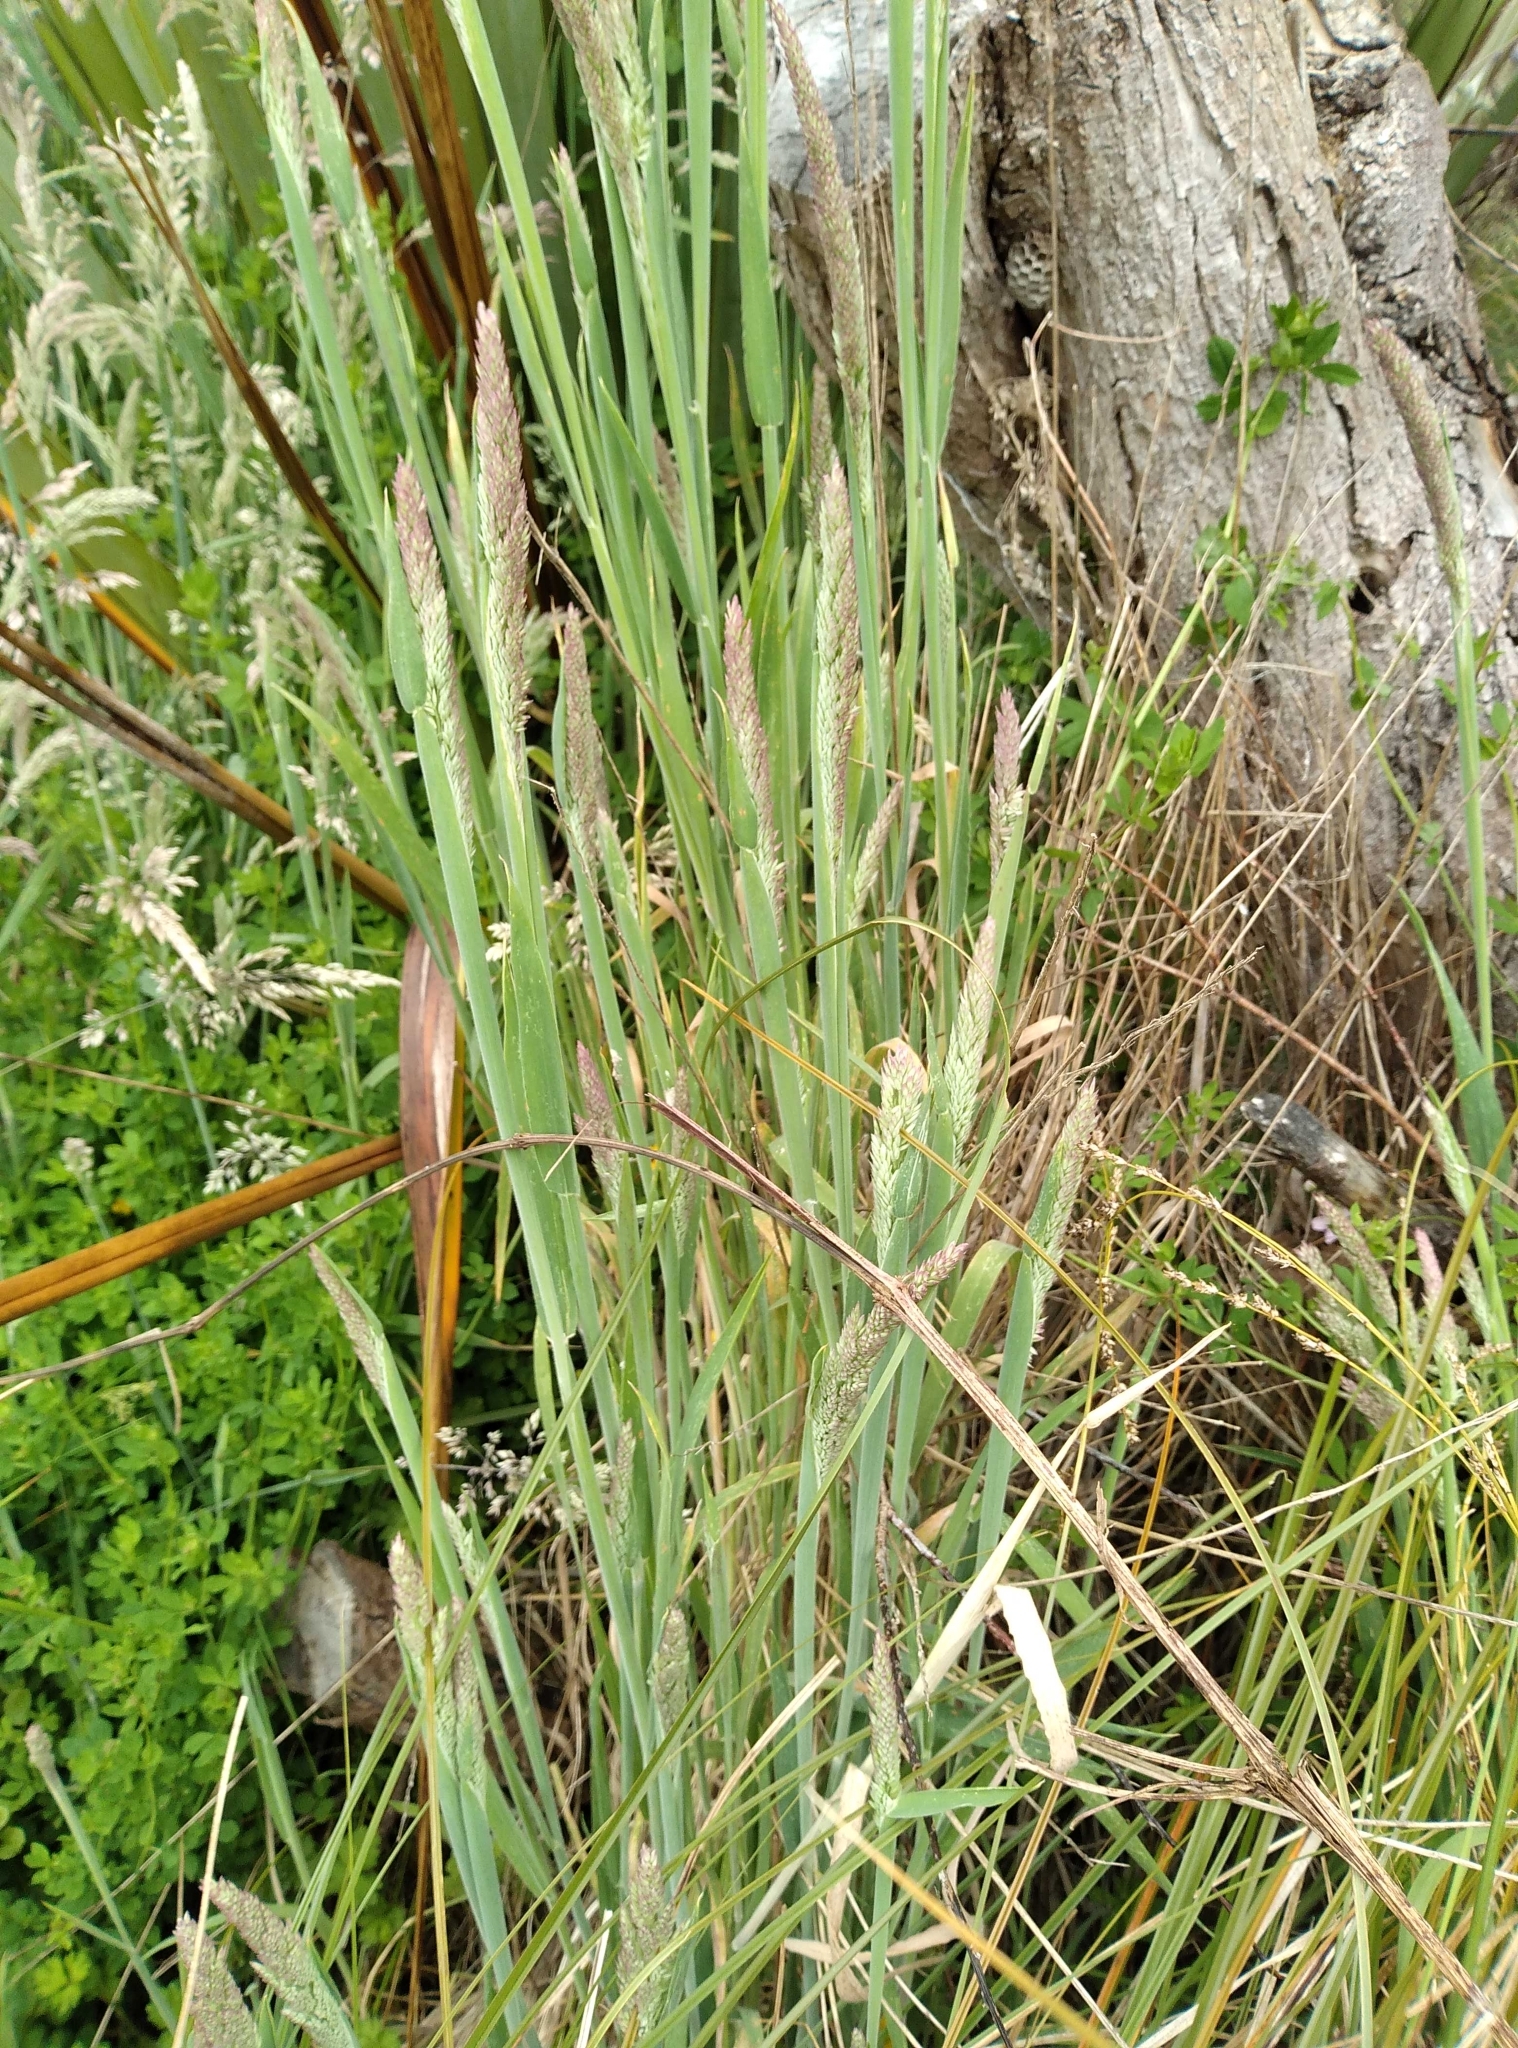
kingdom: Plantae
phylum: Tracheophyta
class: Liliopsida
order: Poales
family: Poaceae
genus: Holcus
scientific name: Holcus lanatus
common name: Yorkshire-fog
